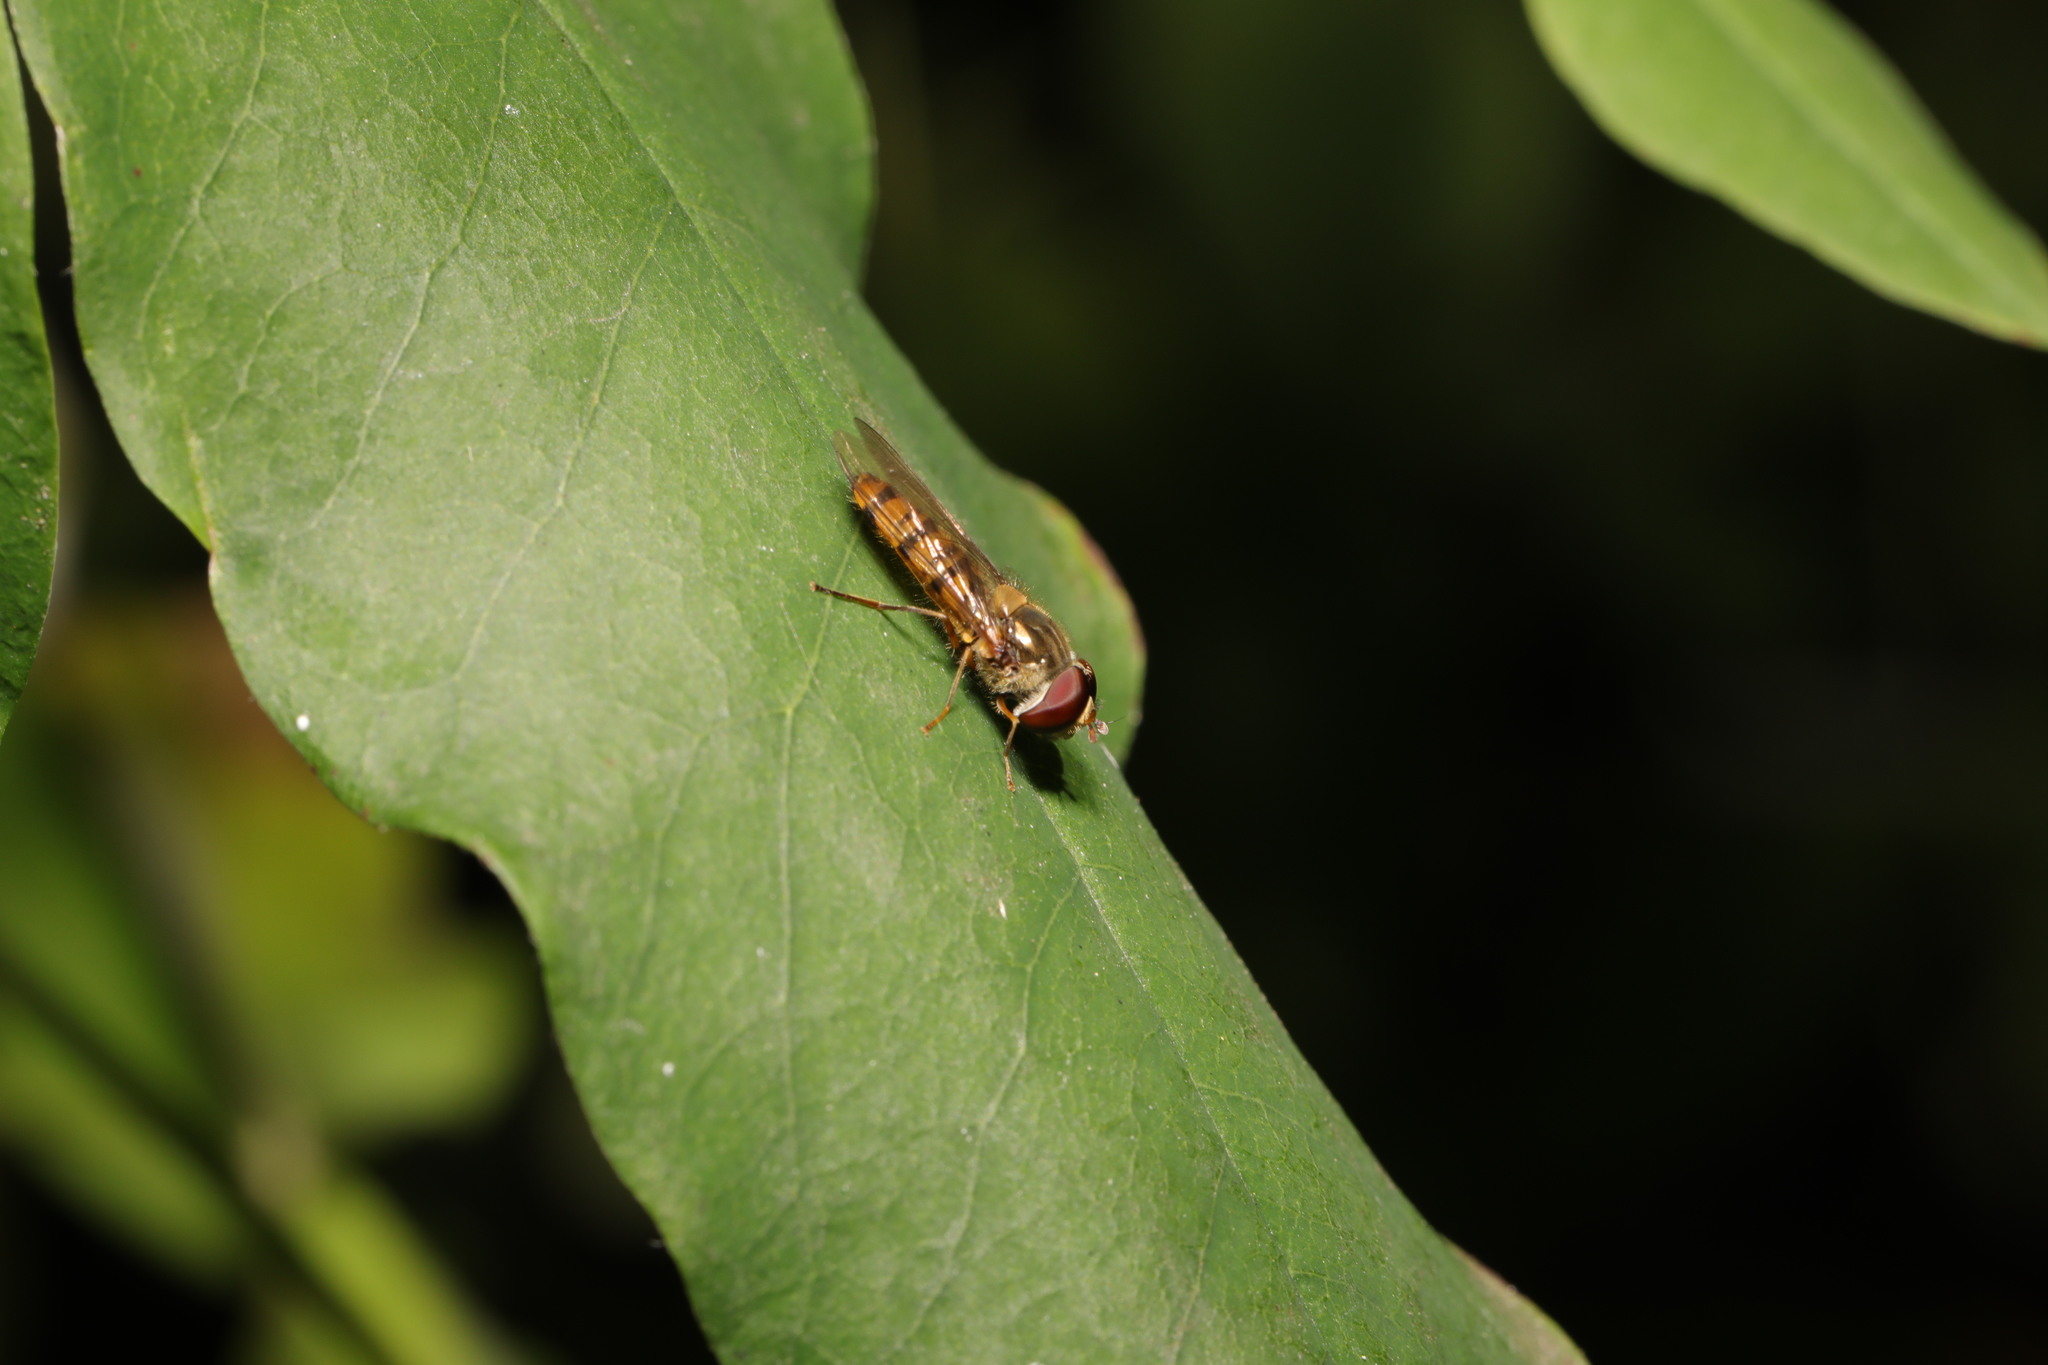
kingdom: Animalia
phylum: Arthropoda
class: Insecta
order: Diptera
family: Syrphidae
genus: Episyrphus
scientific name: Episyrphus balteatus
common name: Marmalade hoverfly
